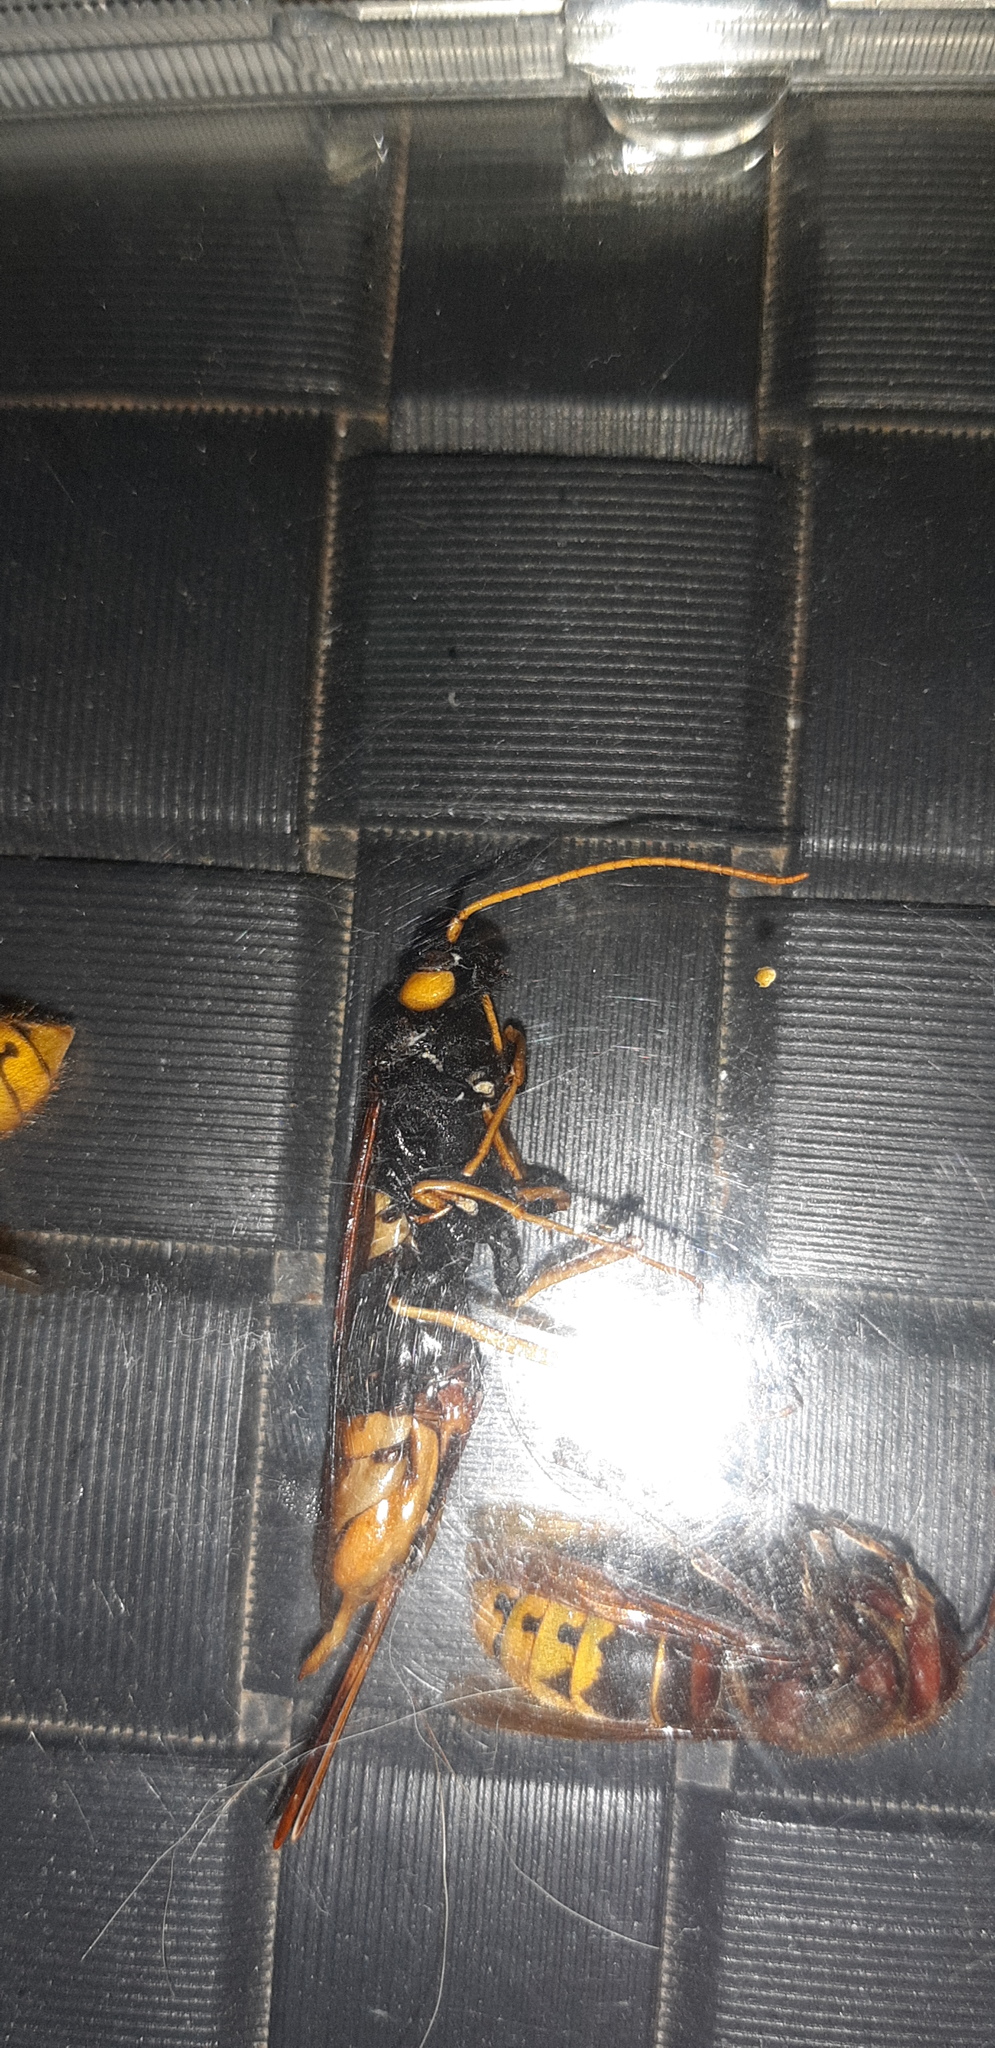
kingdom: Animalia
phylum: Arthropoda
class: Insecta
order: Hymenoptera
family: Siricidae
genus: Urocerus
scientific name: Urocerus gigas
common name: Giant woodwasp
